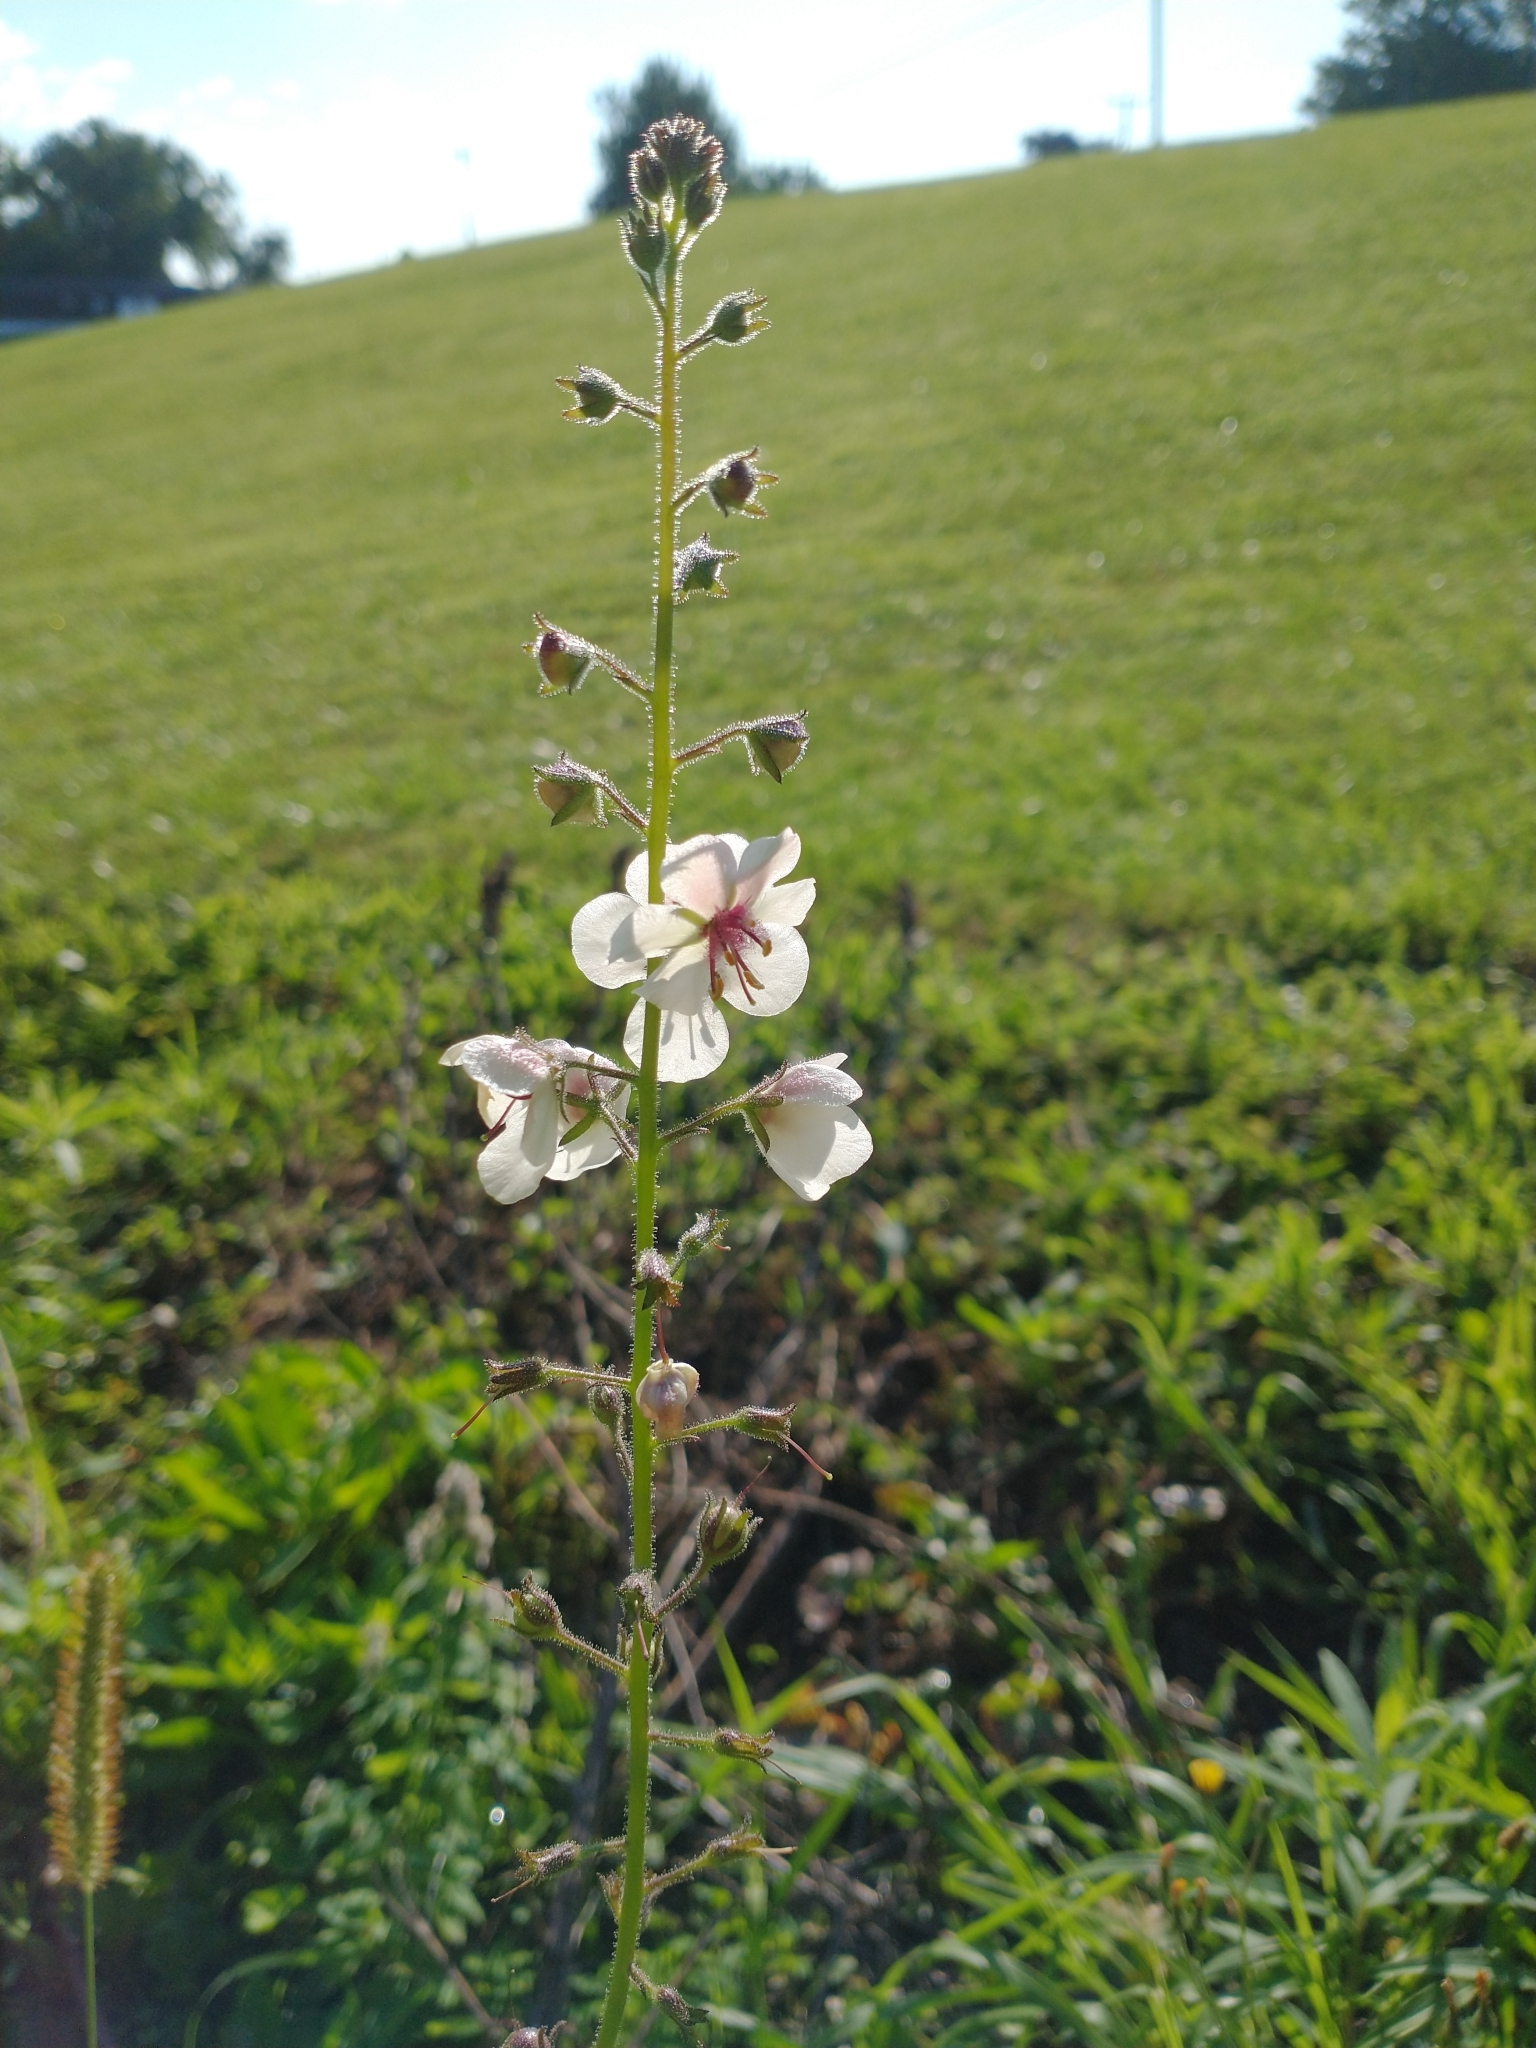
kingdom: Plantae
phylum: Tracheophyta
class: Magnoliopsida
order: Lamiales
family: Scrophulariaceae
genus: Verbascum
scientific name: Verbascum blattaria
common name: Moth mullein
